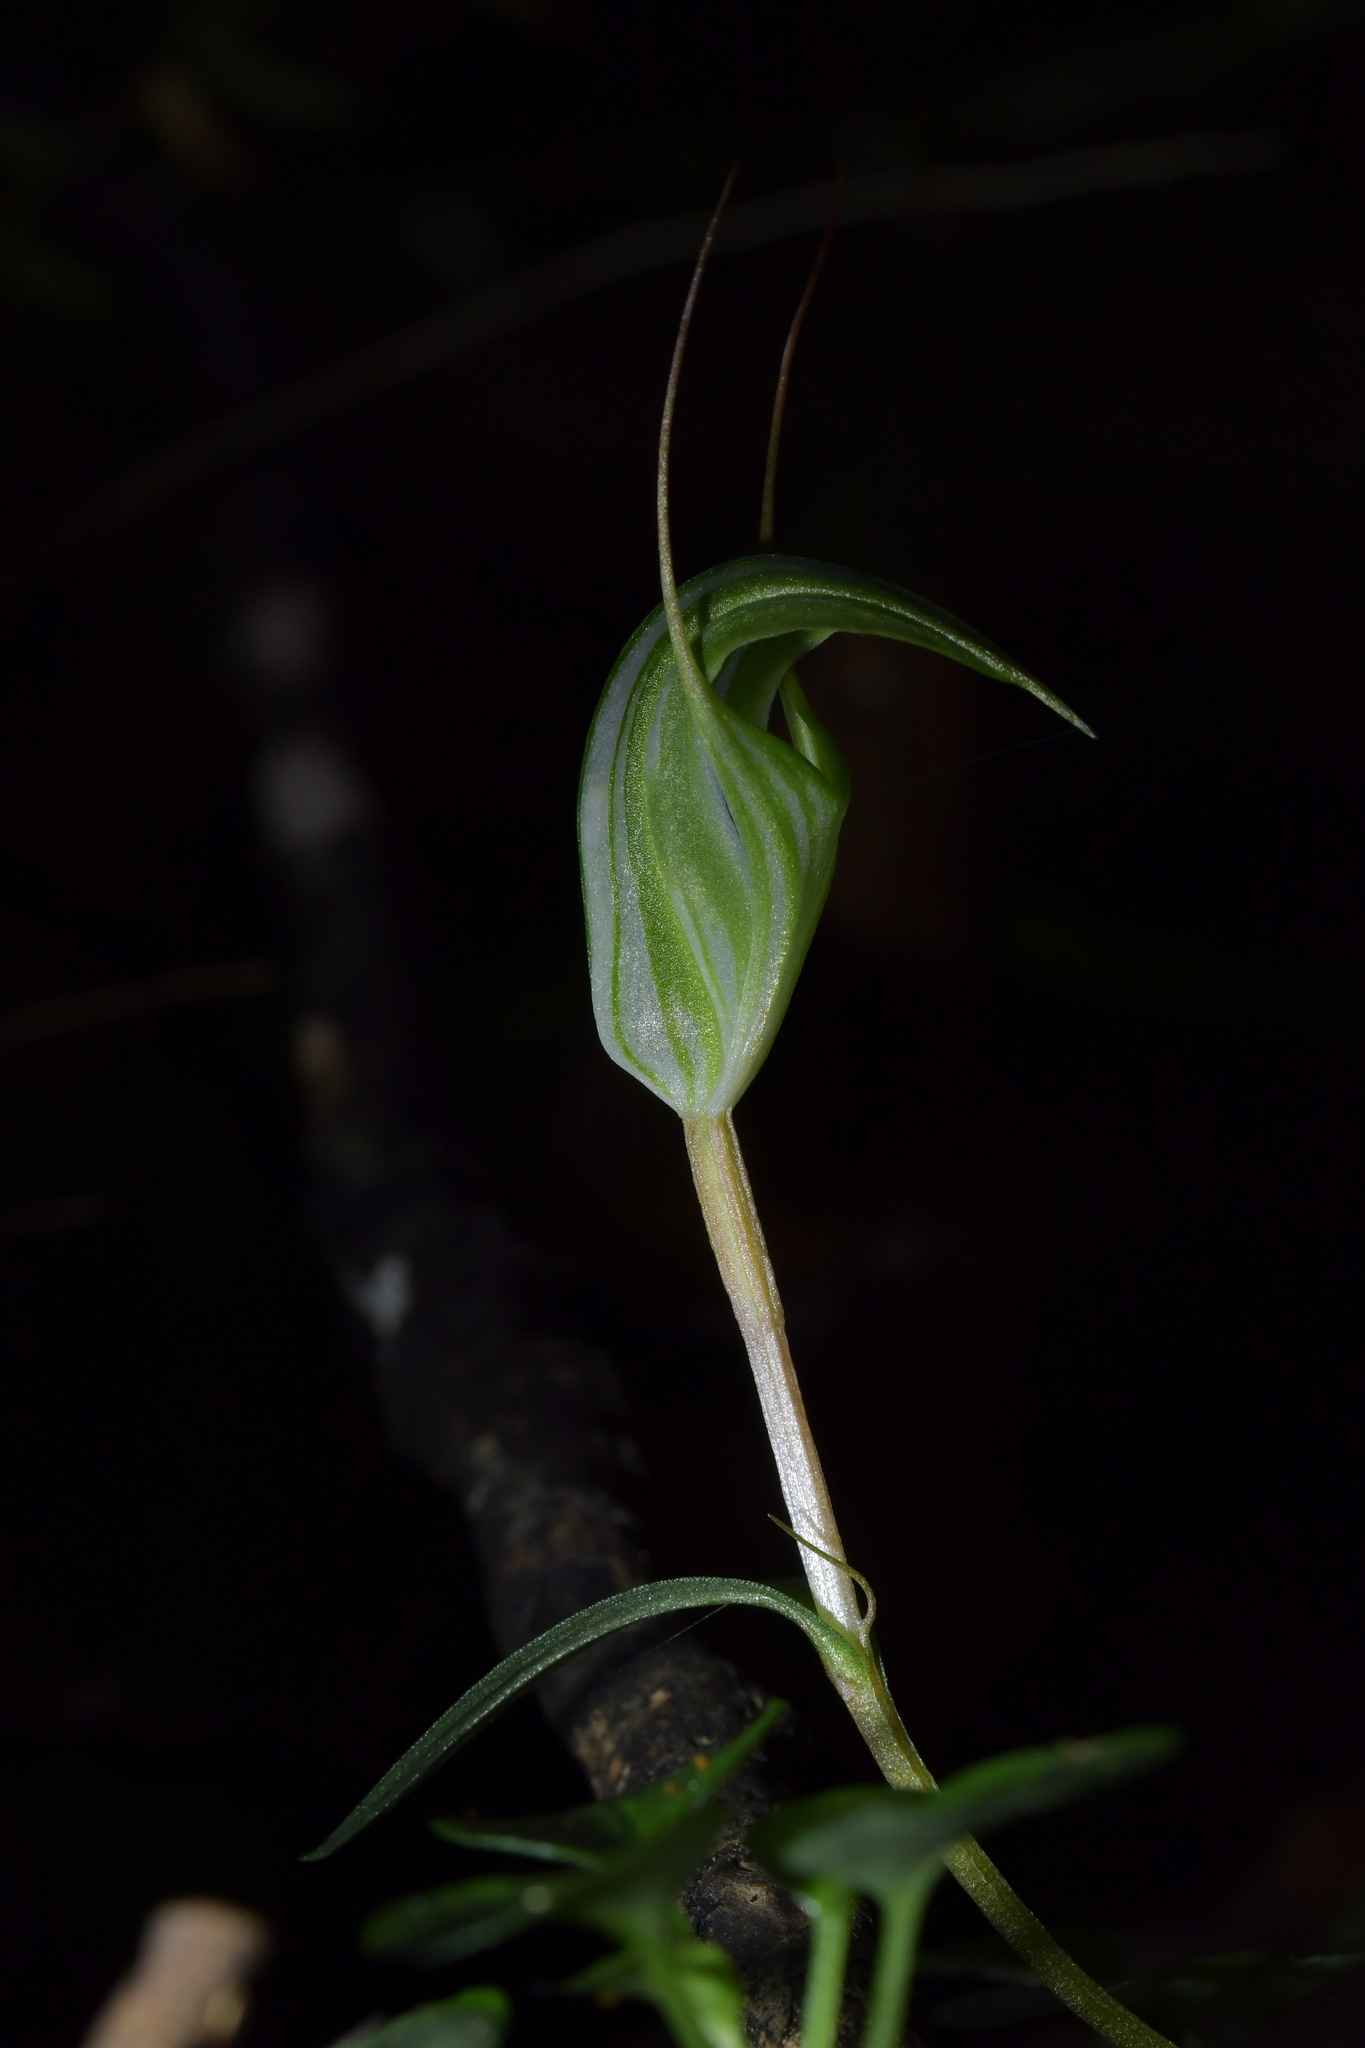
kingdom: Plantae
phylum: Tracheophyta
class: Liliopsida
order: Asparagales
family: Orchidaceae
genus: Pterostylis
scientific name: Pterostylis alobula
